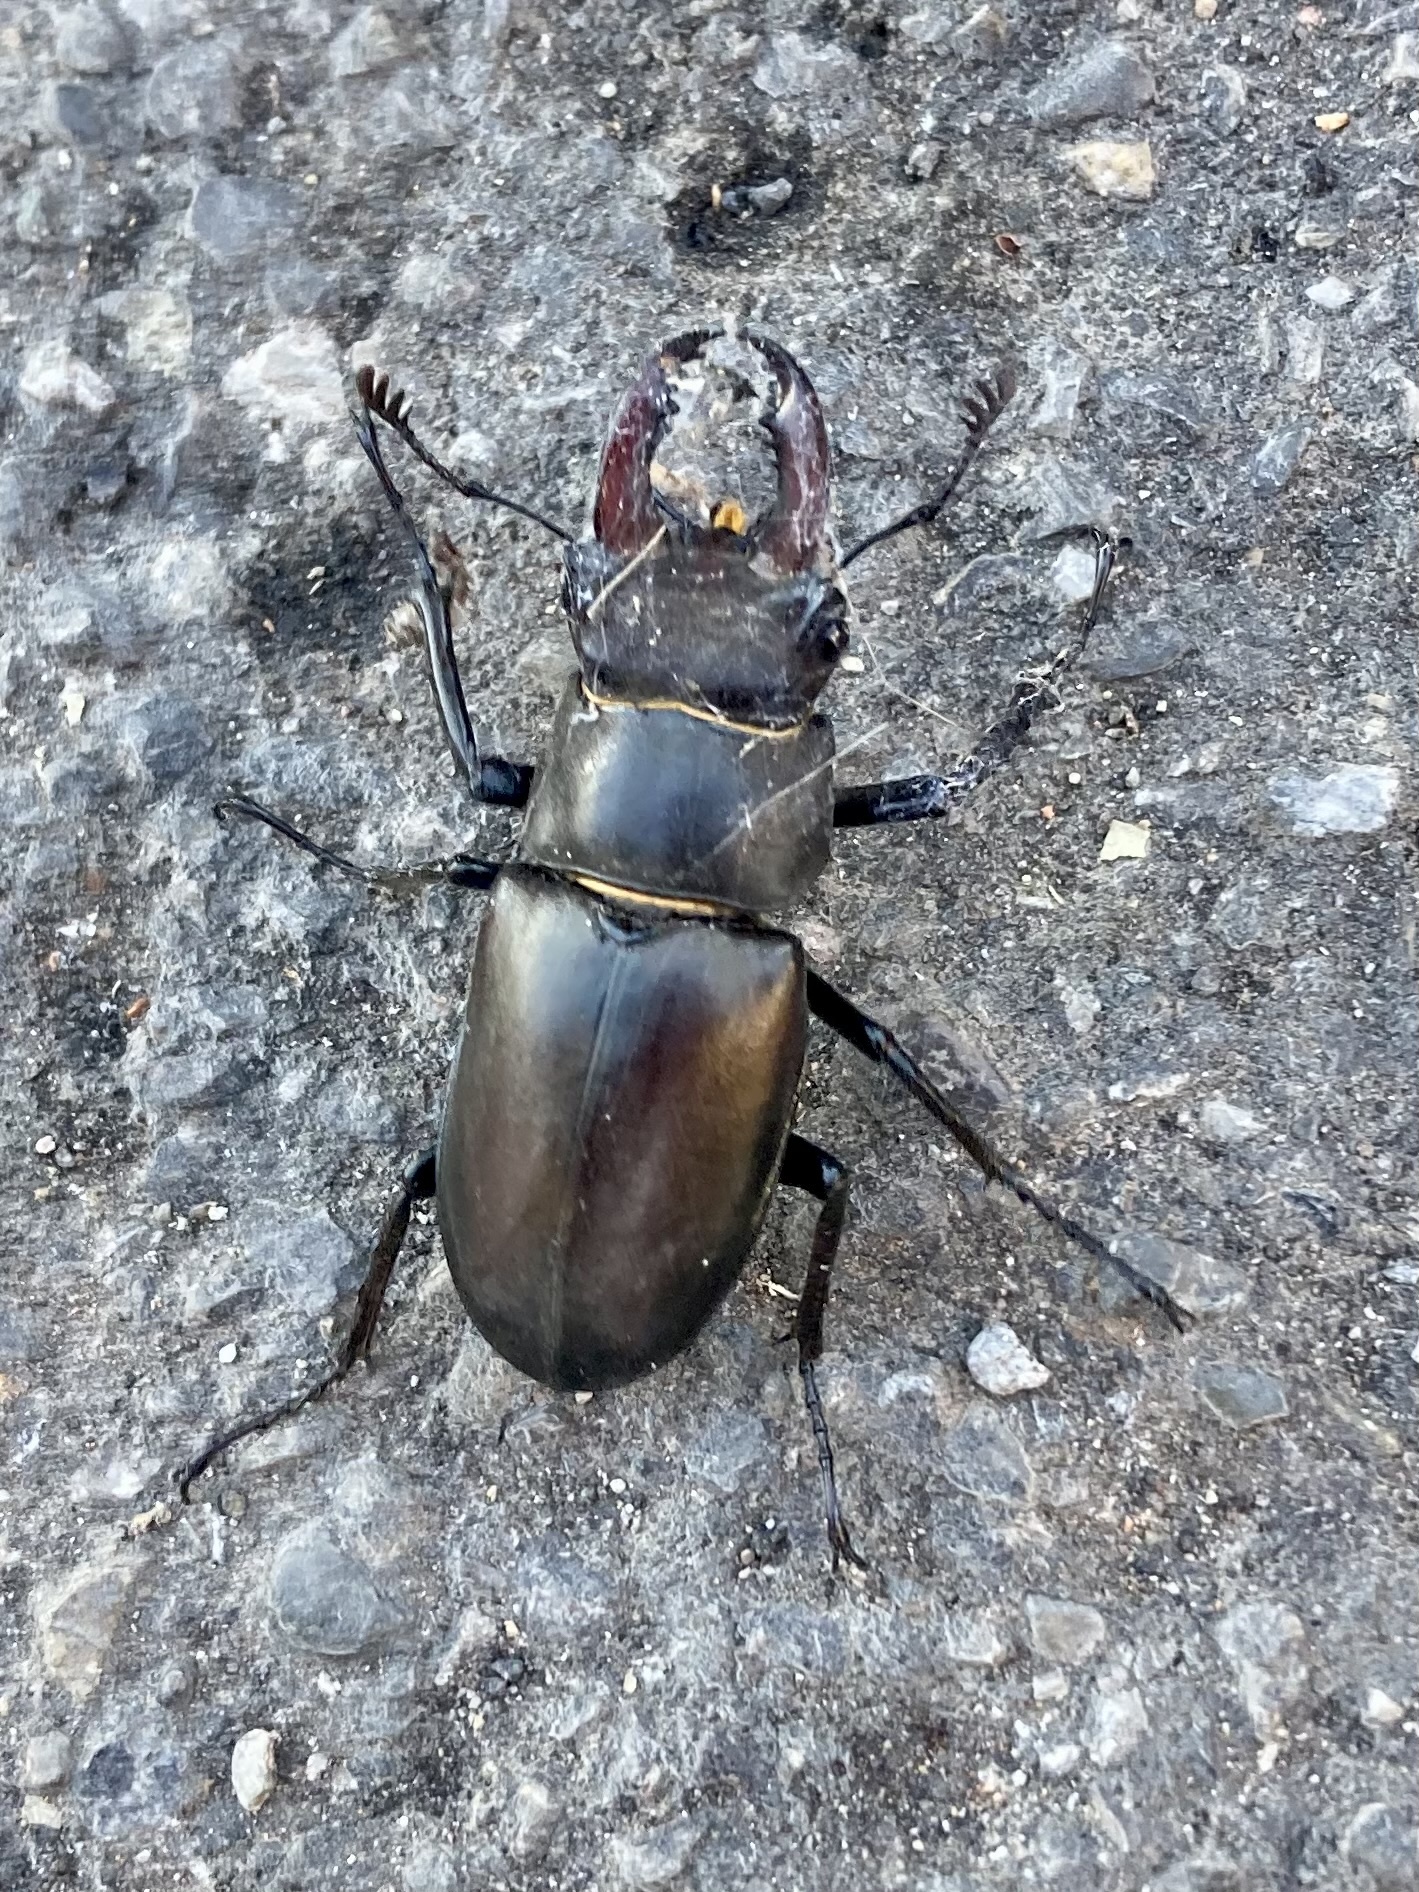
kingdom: Animalia
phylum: Arthropoda
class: Insecta
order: Coleoptera
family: Lucanidae
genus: Lucanus
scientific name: Lucanus cervus
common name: Stag beetle
